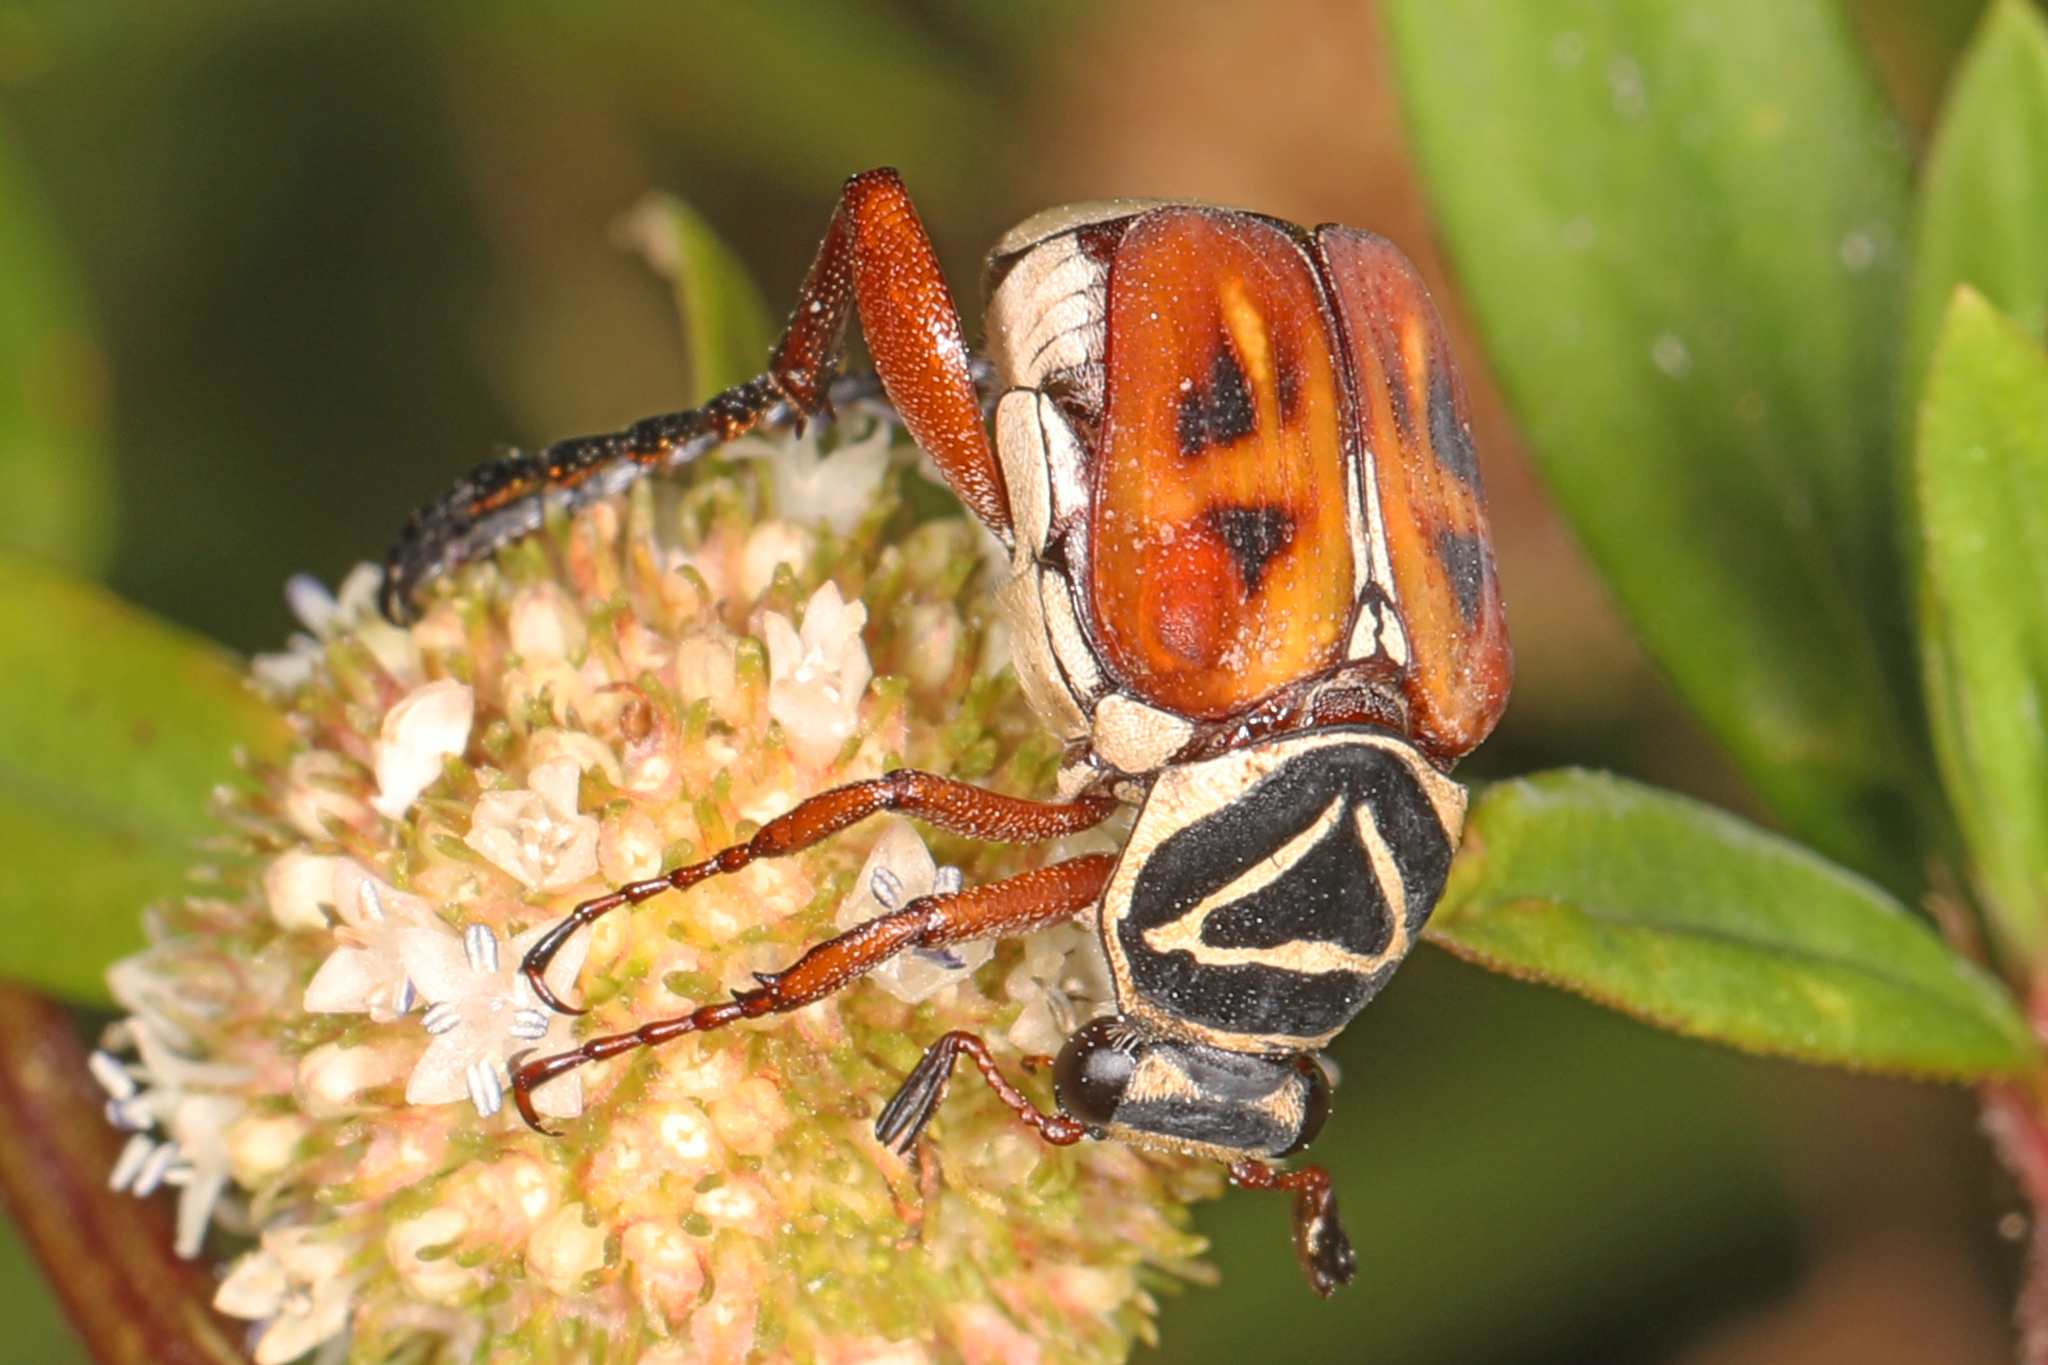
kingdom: Animalia
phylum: Arthropoda
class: Insecta
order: Coleoptera
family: Scarabaeidae
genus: Trigonopeltastes
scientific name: Trigonopeltastes delta
